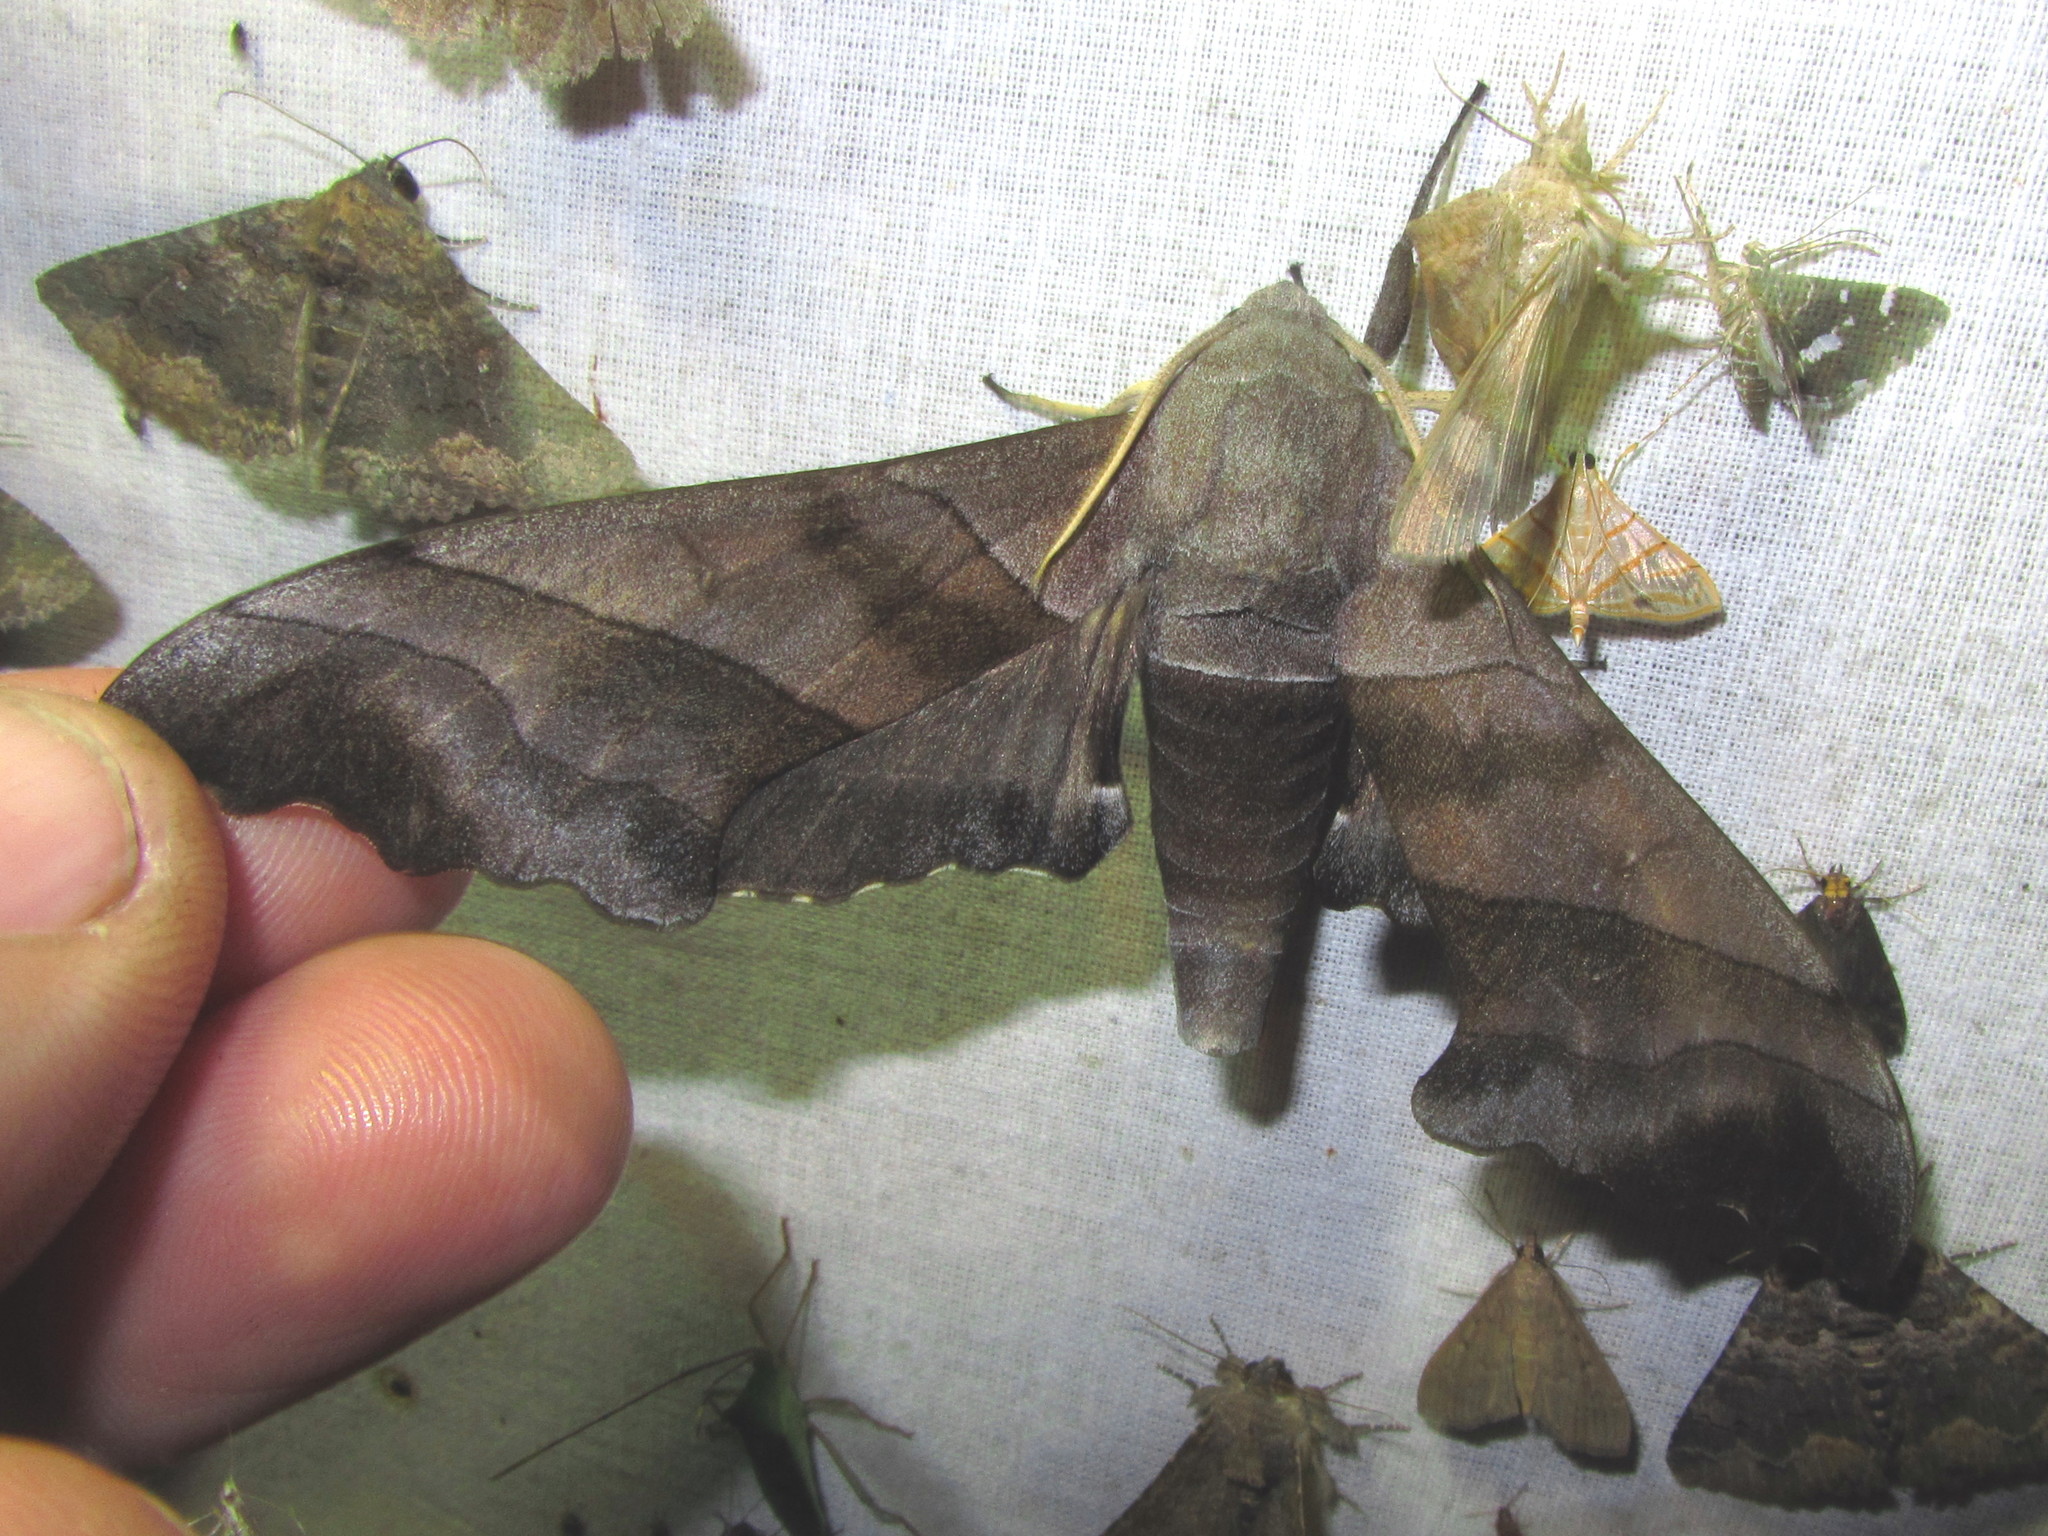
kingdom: Animalia
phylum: Arthropoda
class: Insecta
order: Lepidoptera
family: Sphingidae
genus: Polyptychus
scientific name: Polyptychus trilineatus
